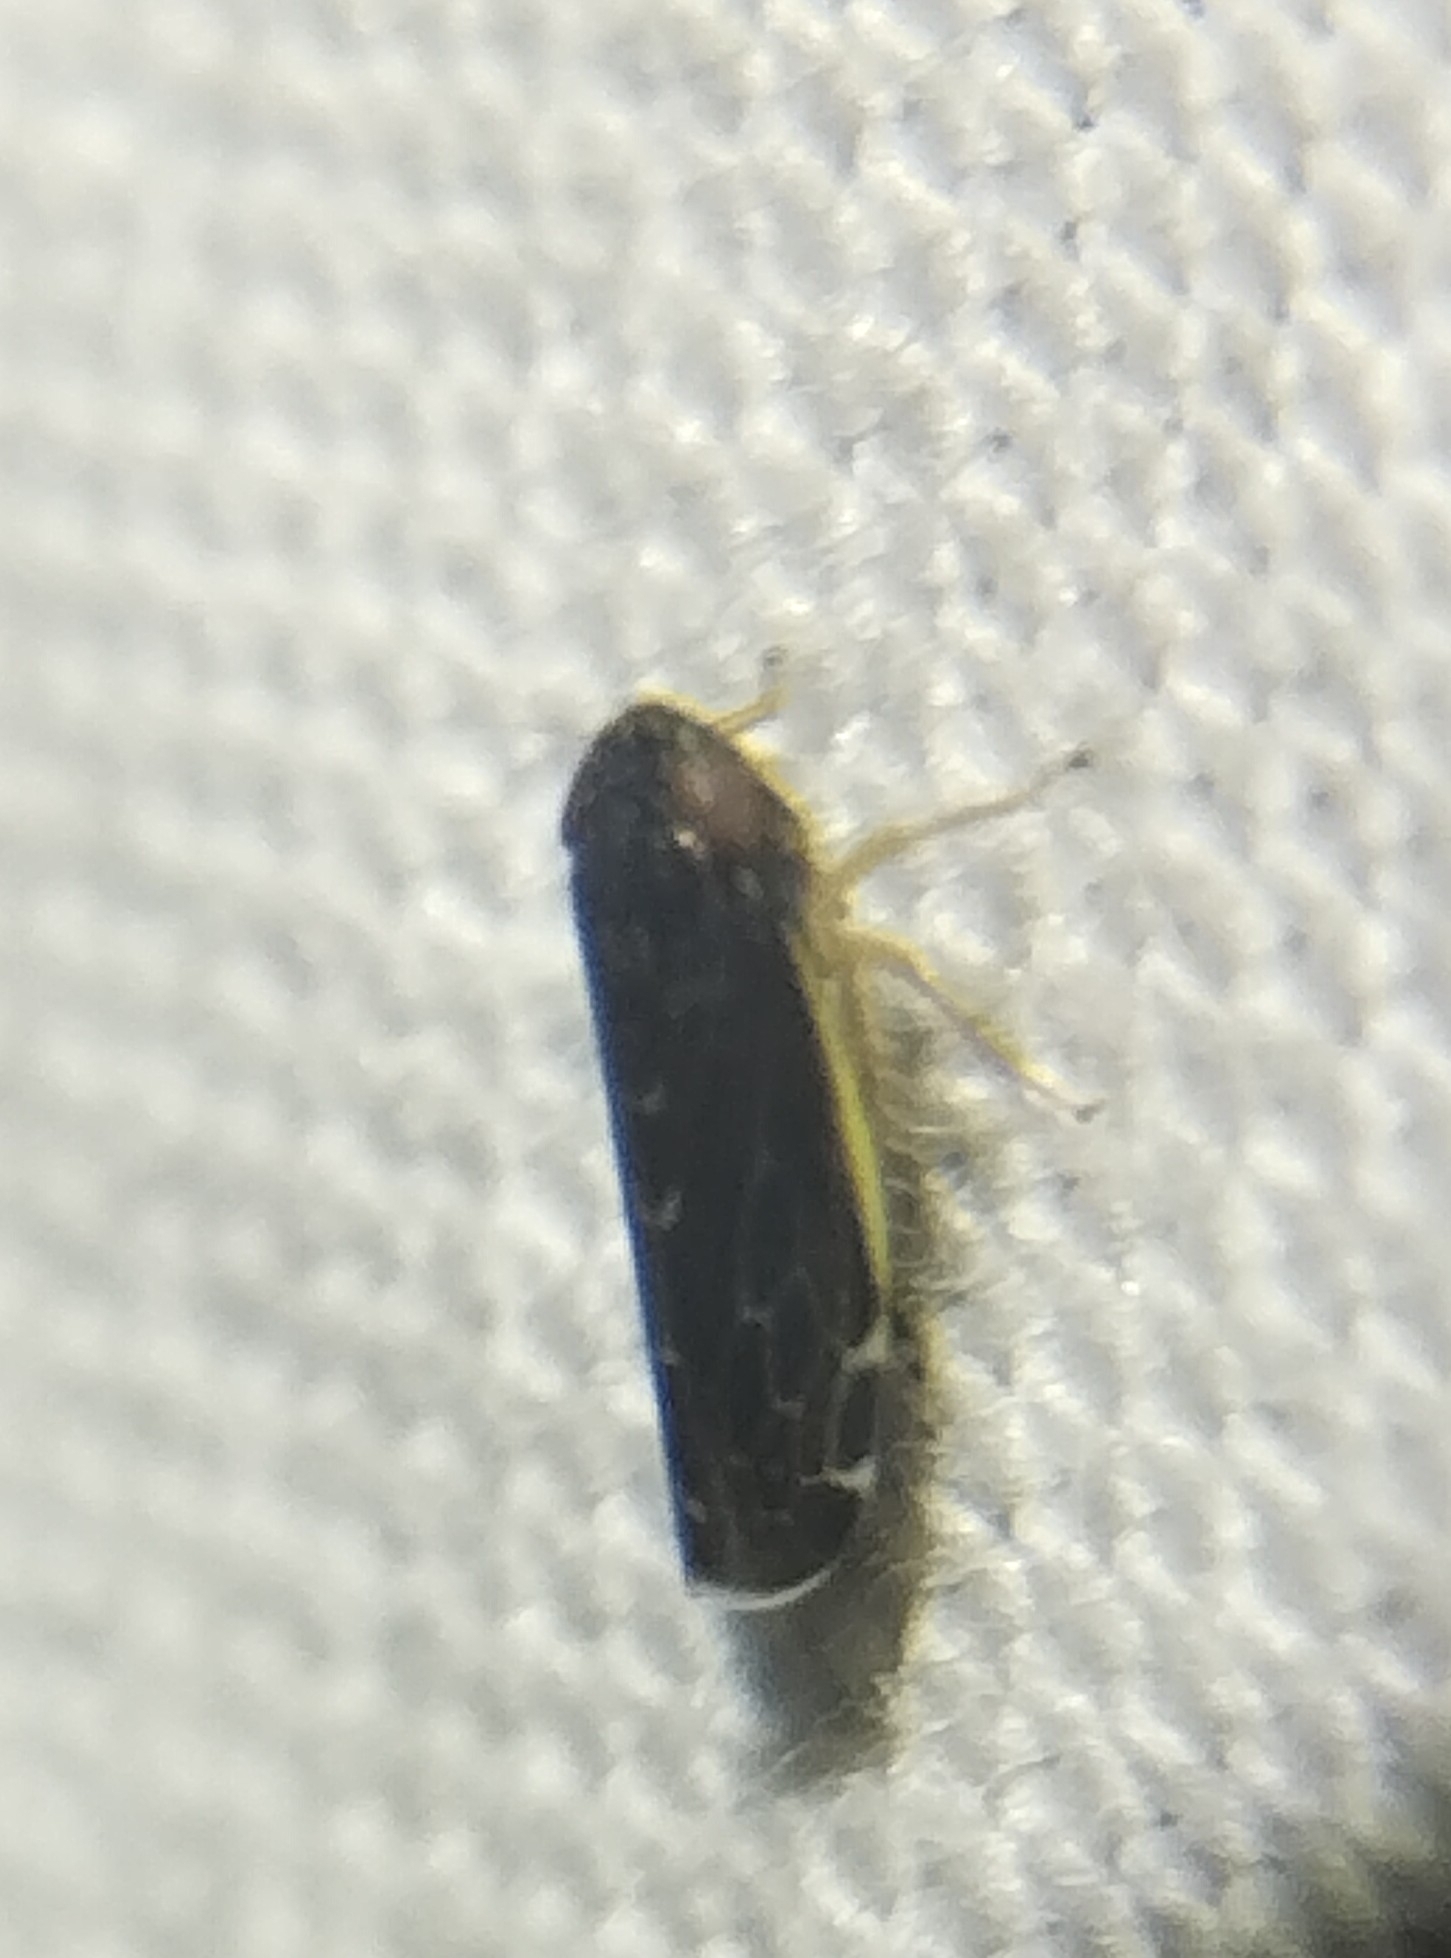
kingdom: Animalia
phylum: Arthropoda
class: Insecta
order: Hemiptera
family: Cicadellidae
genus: Planicephalus
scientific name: Planicephalus
